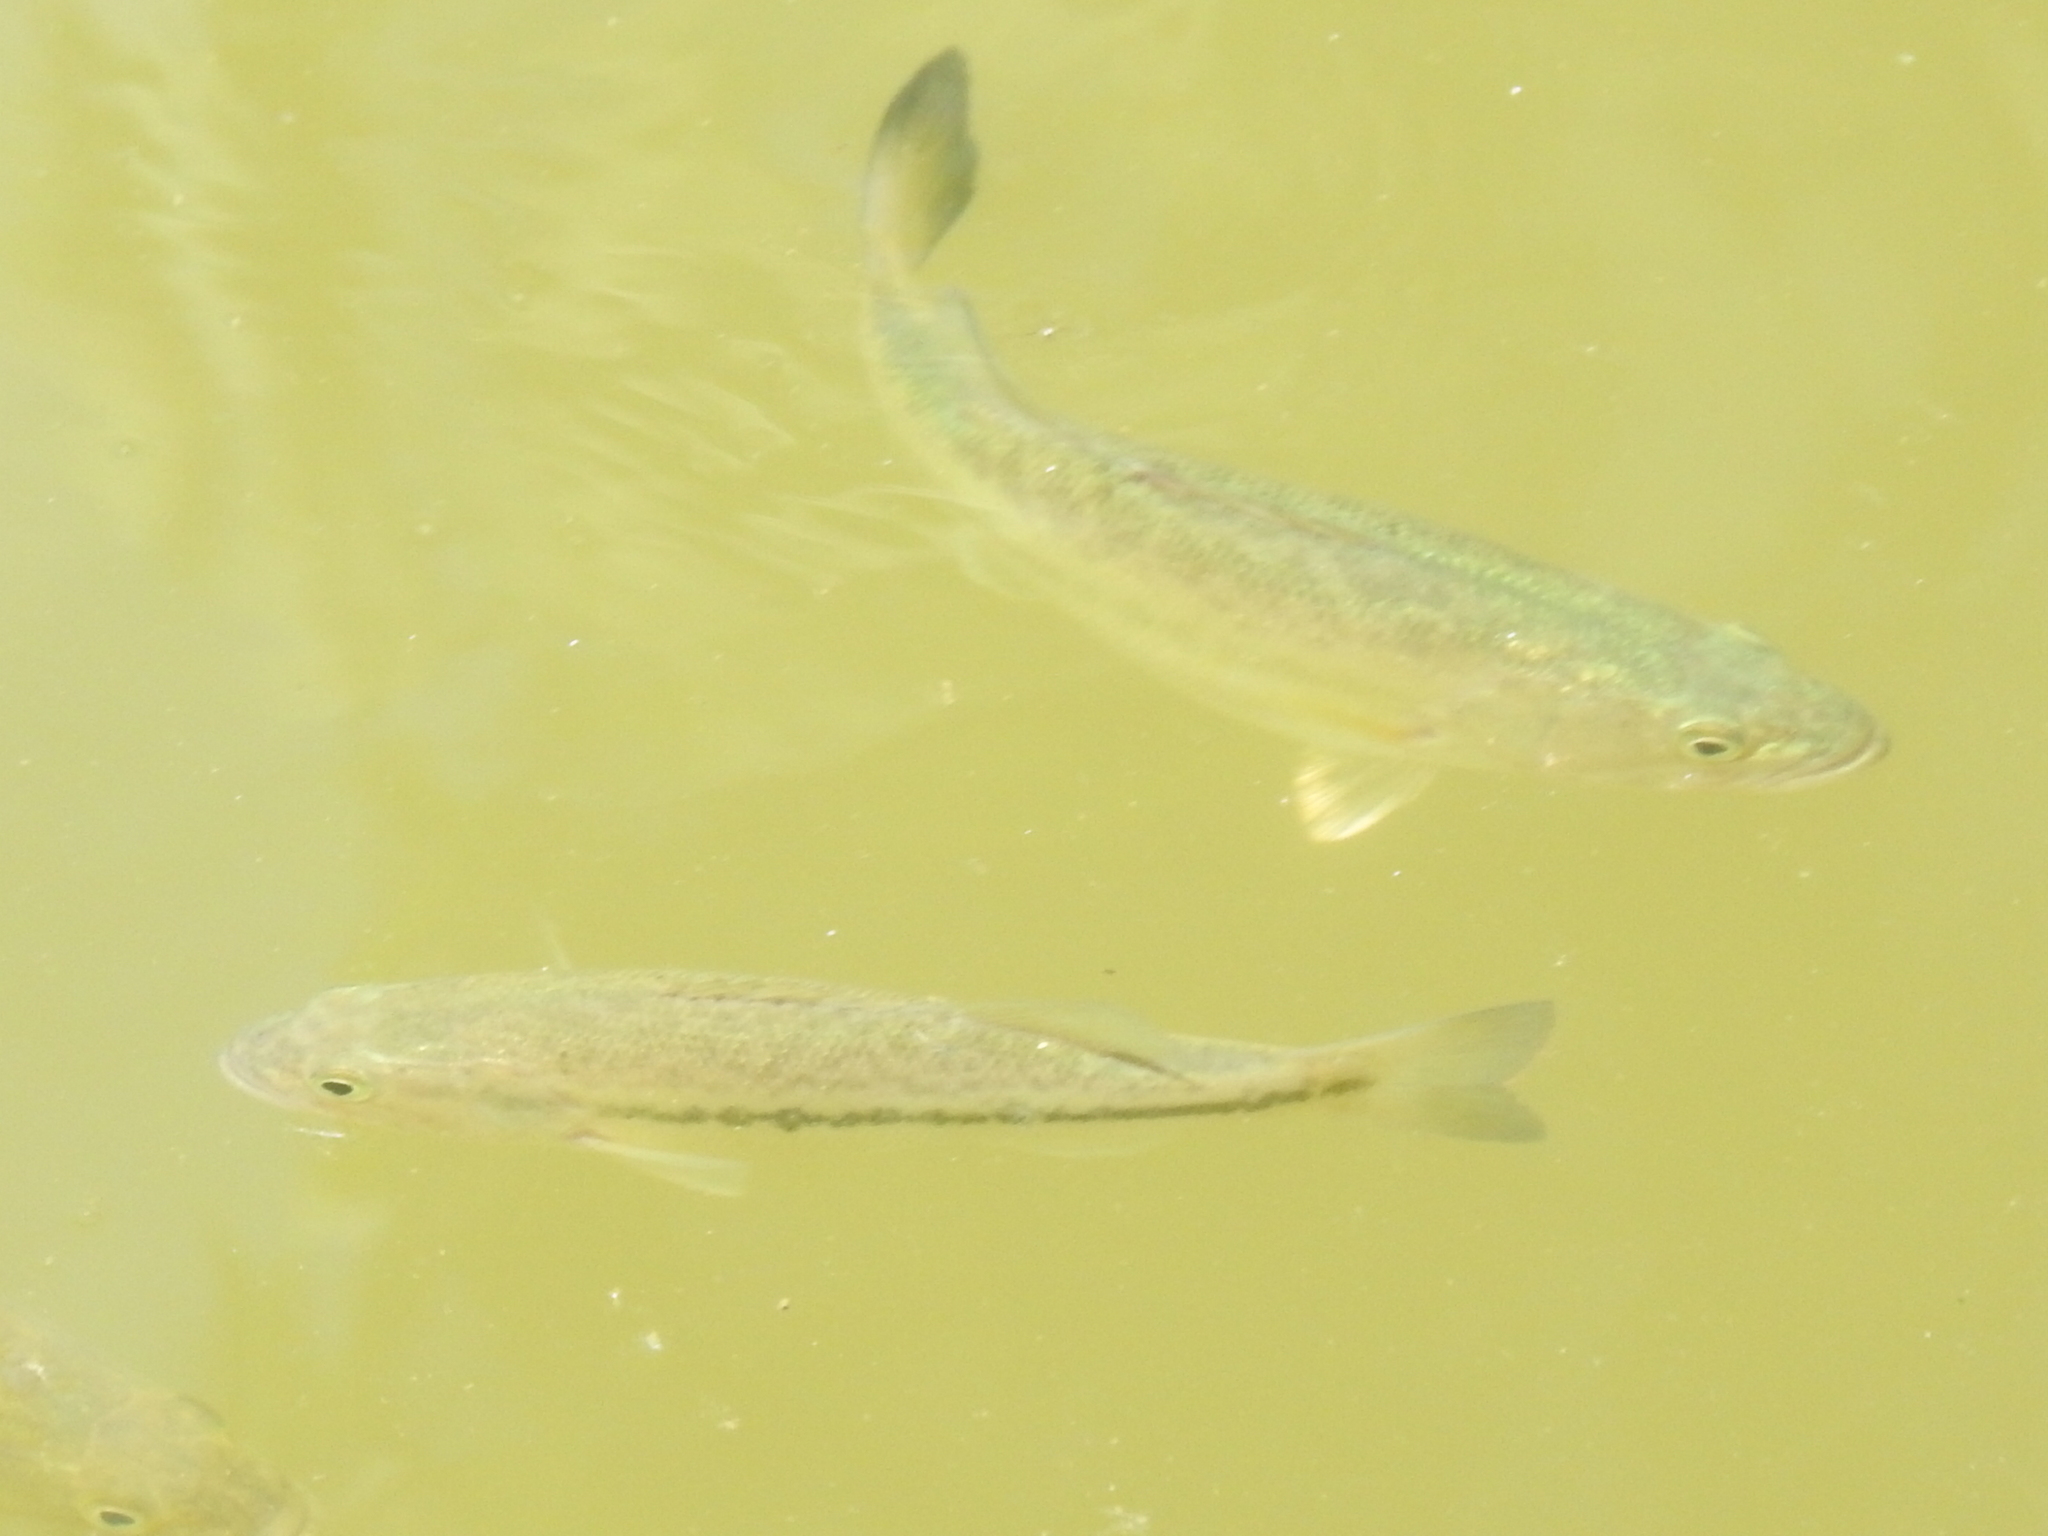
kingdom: Animalia
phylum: Chordata
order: Perciformes
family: Centrarchidae
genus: Micropterus
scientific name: Micropterus
